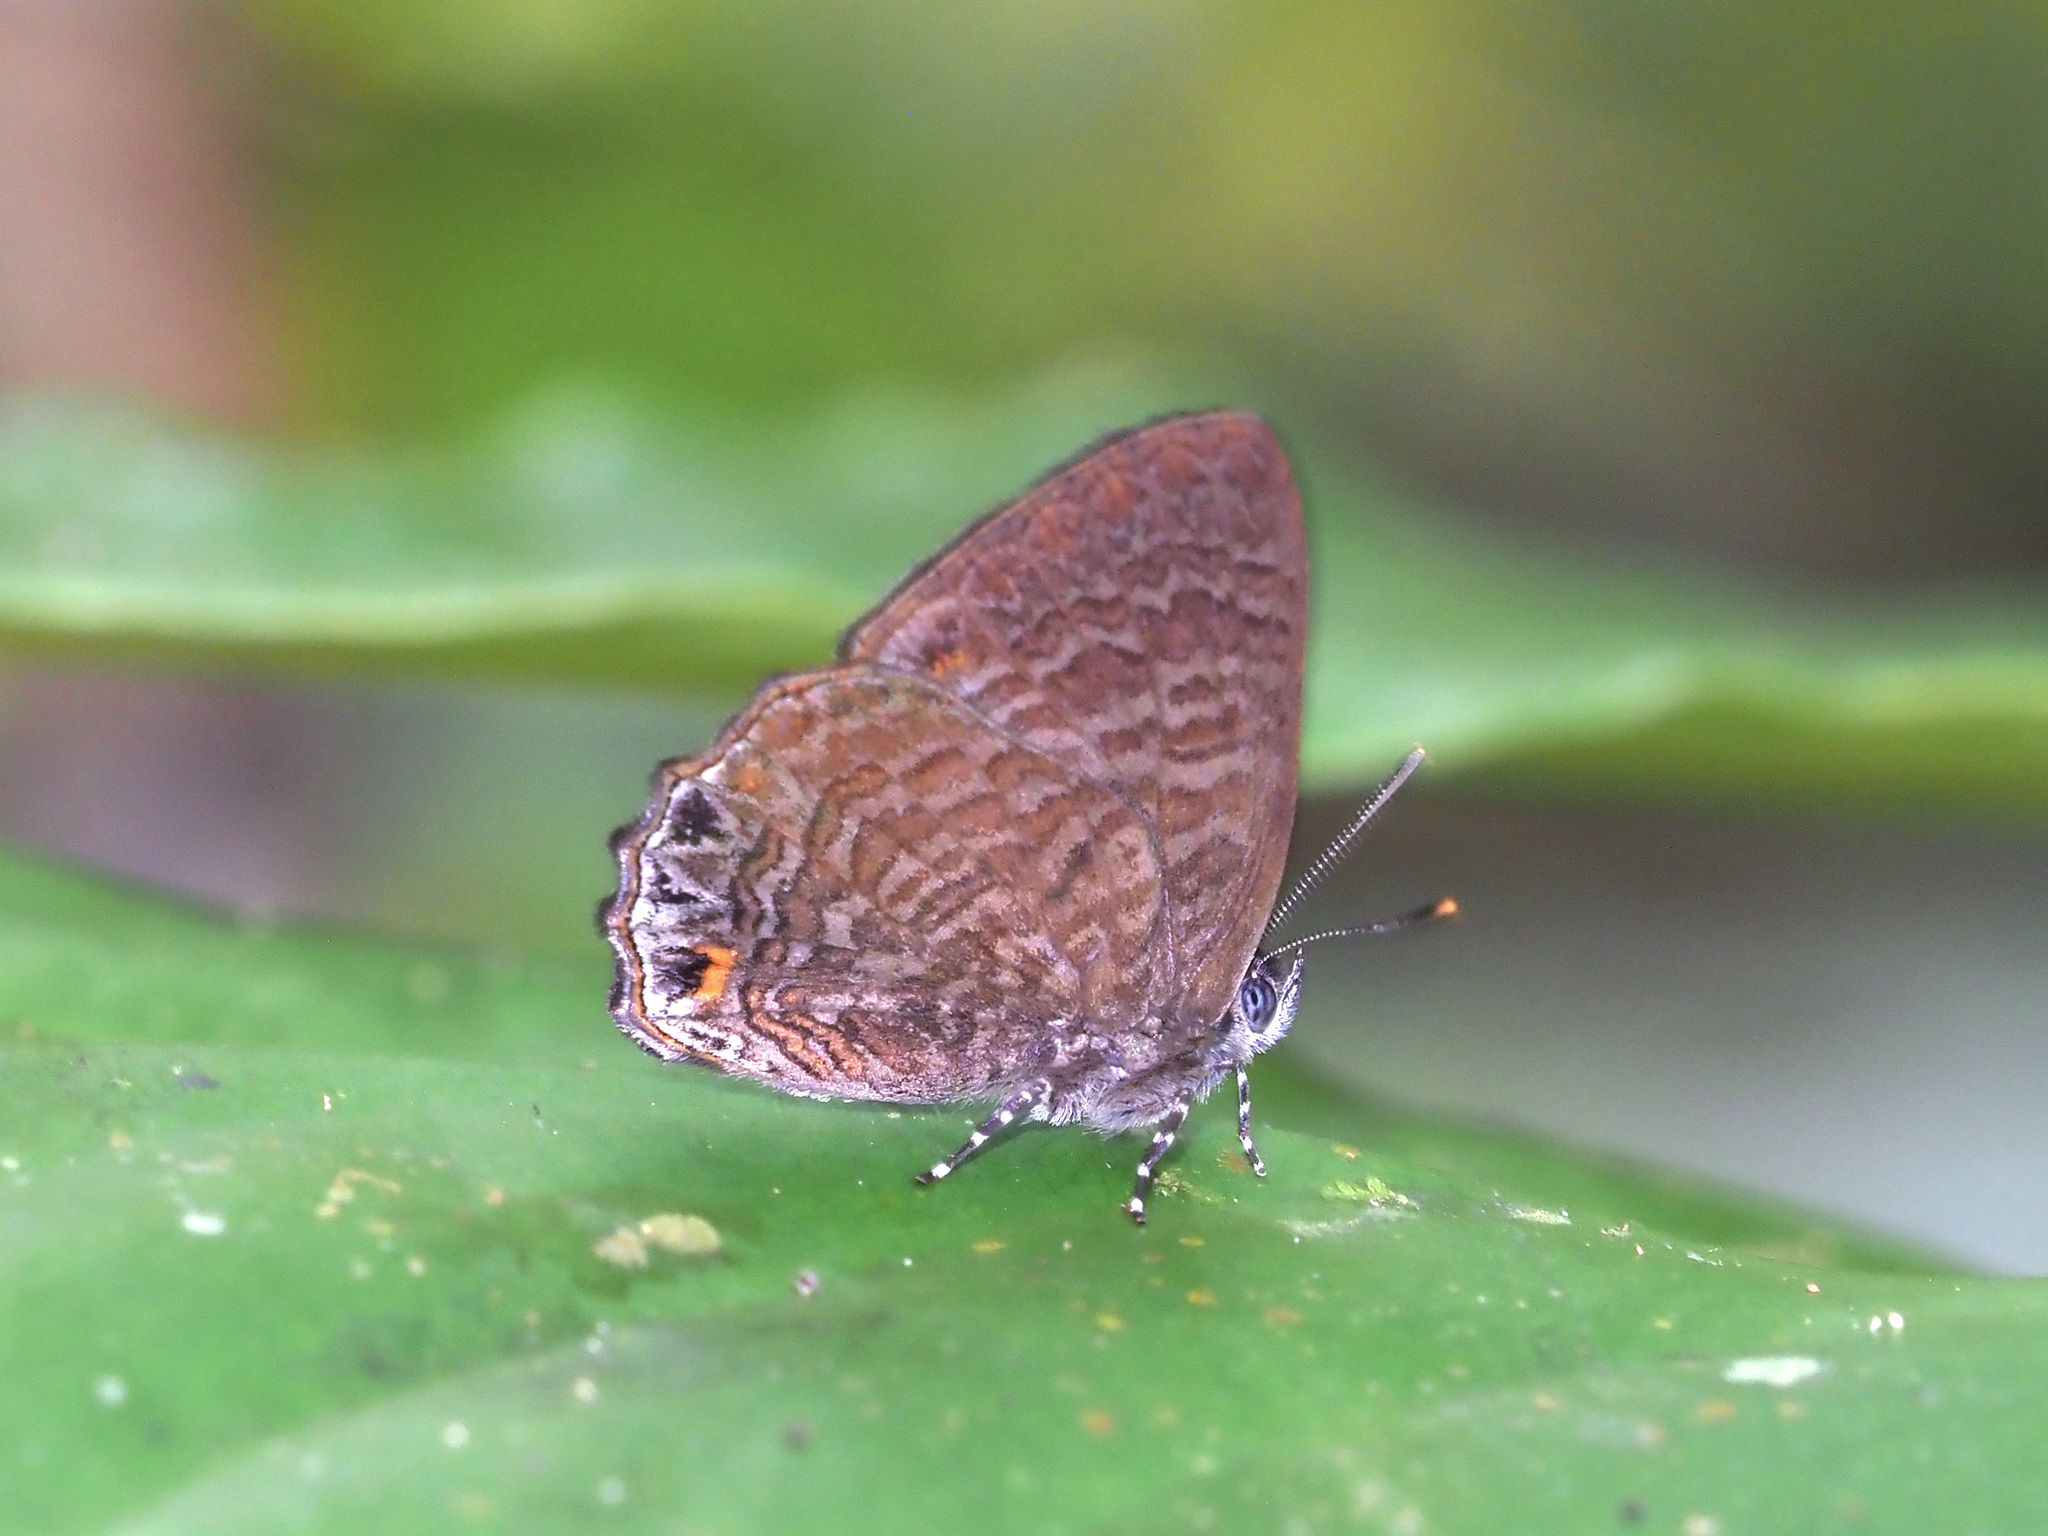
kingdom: Animalia
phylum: Arthropoda
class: Insecta
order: Lepidoptera
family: Lycaenidae
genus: Poritia
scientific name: Poritia philota
